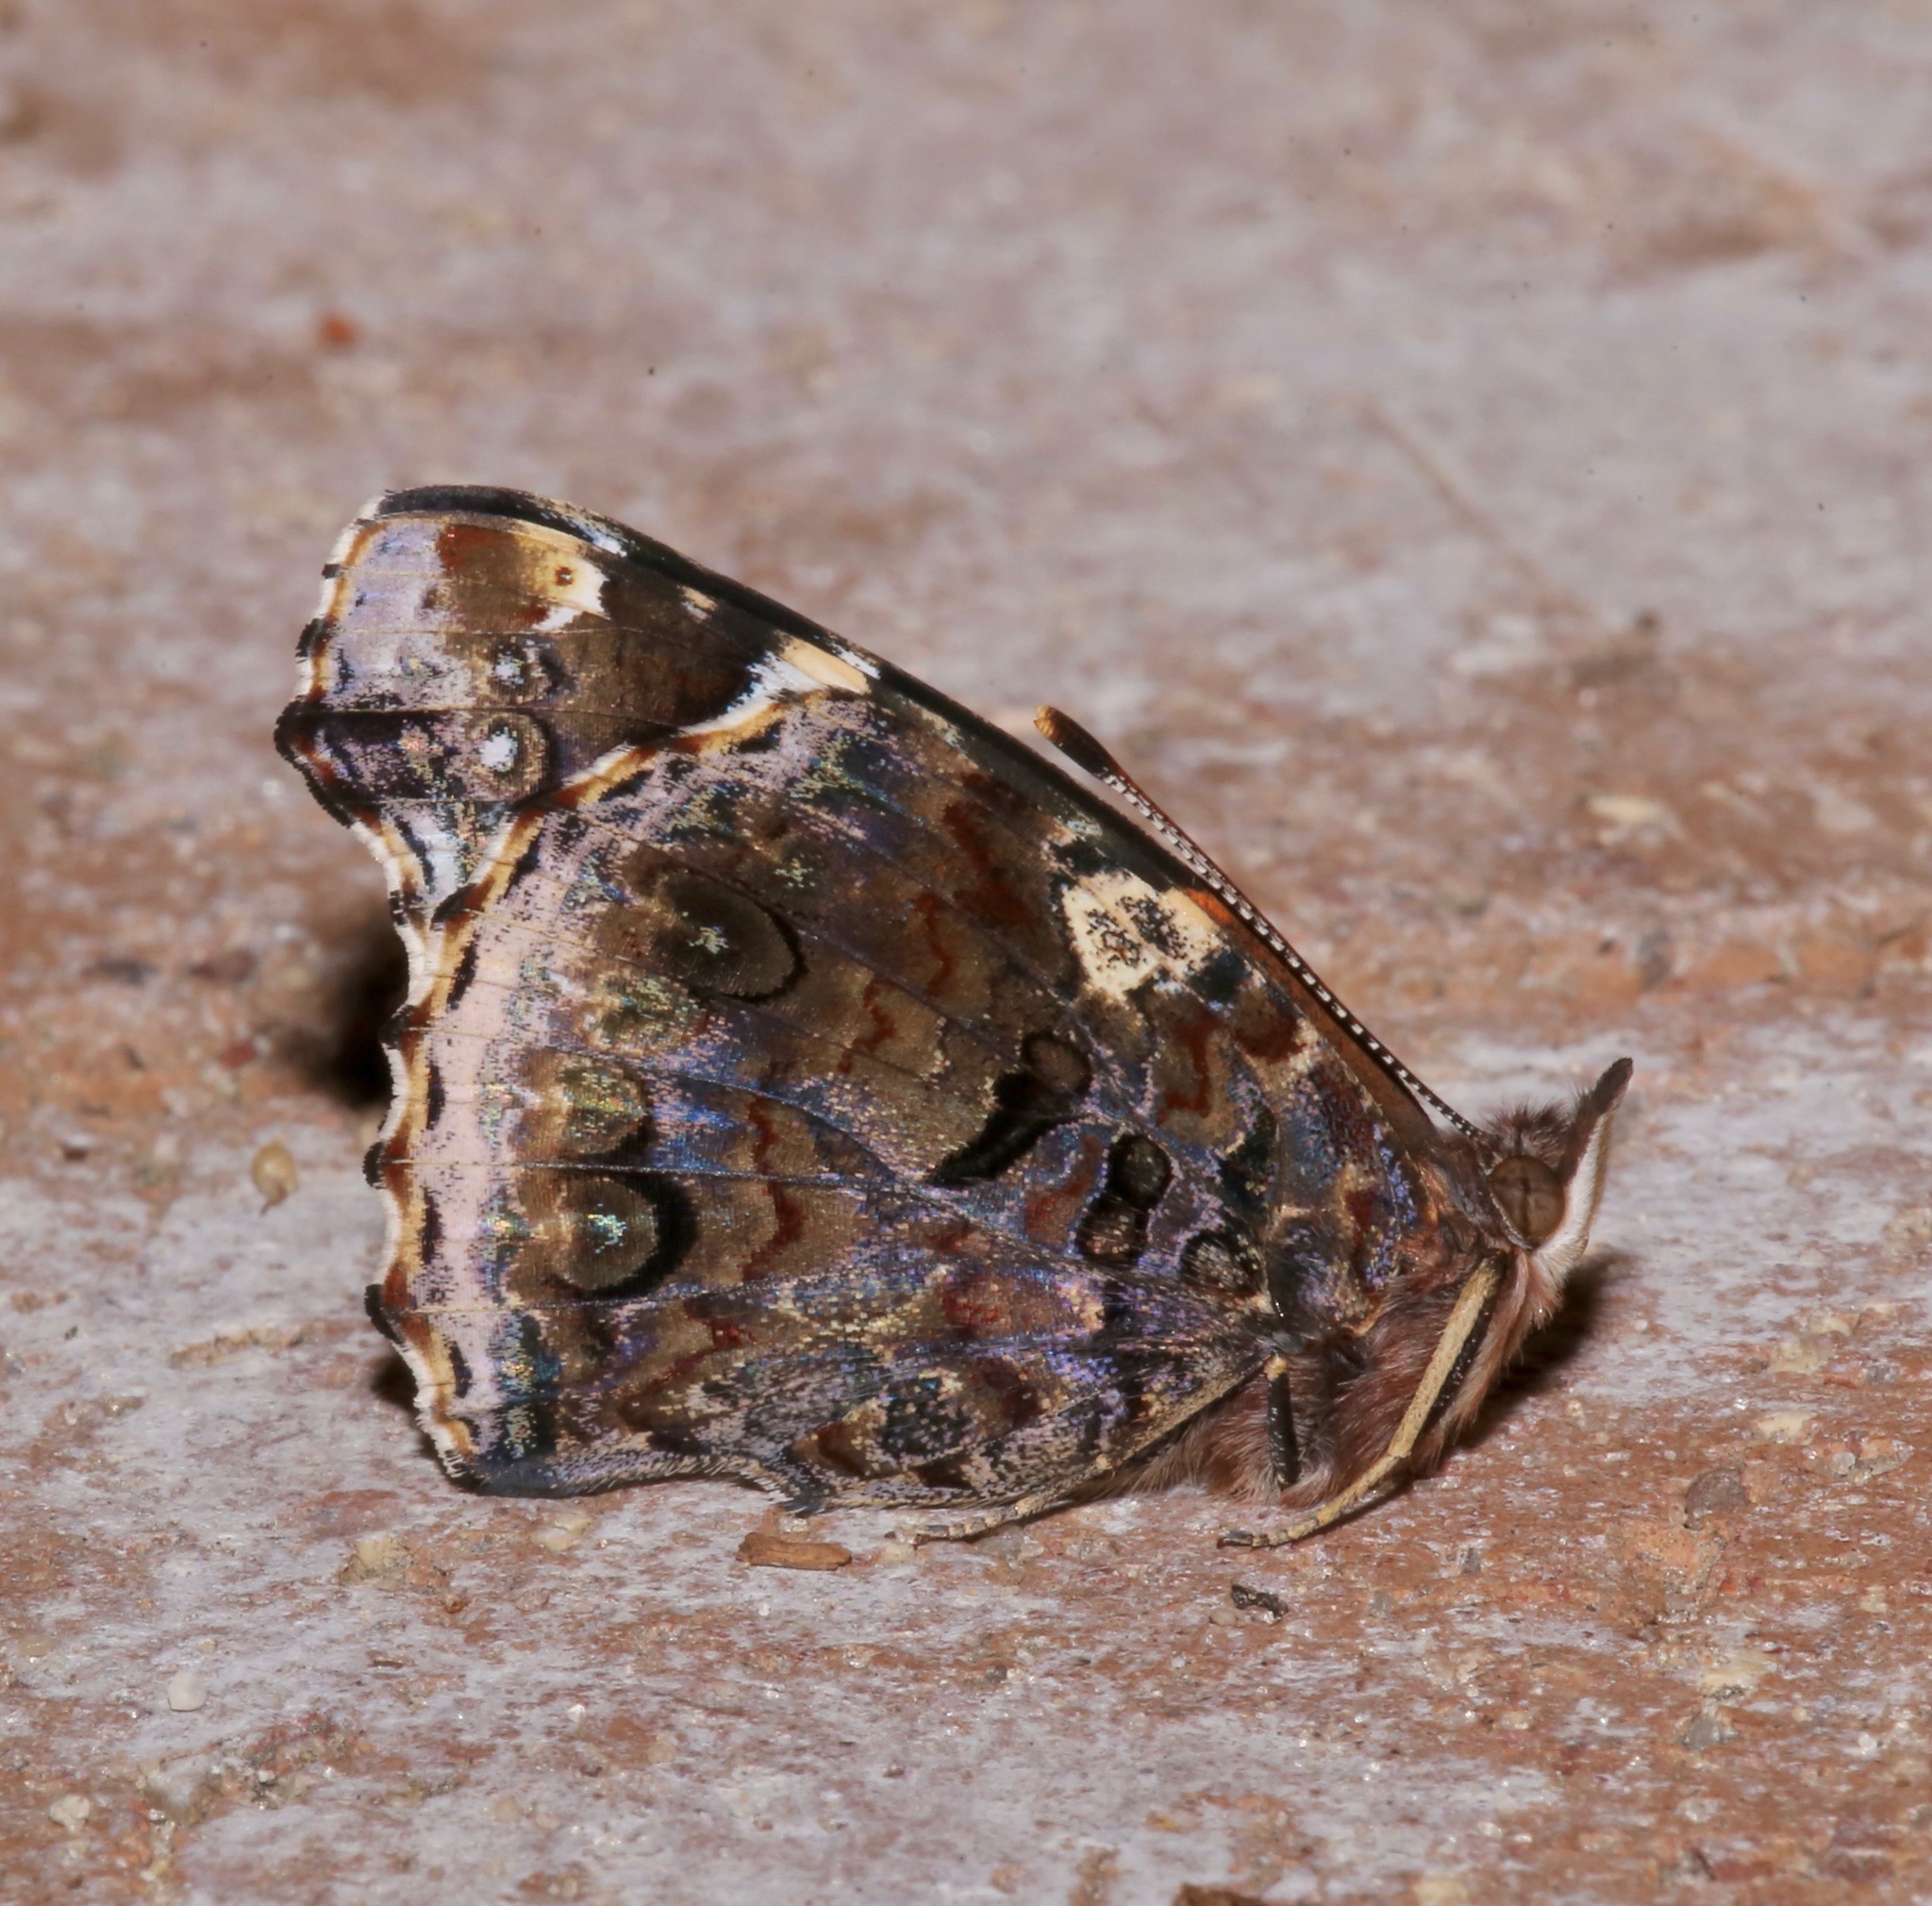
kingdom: Animalia
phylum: Arthropoda
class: Insecta
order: Lepidoptera
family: Nymphalidae
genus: Vanessa
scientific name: Vanessa atalanta
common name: Red admiral
